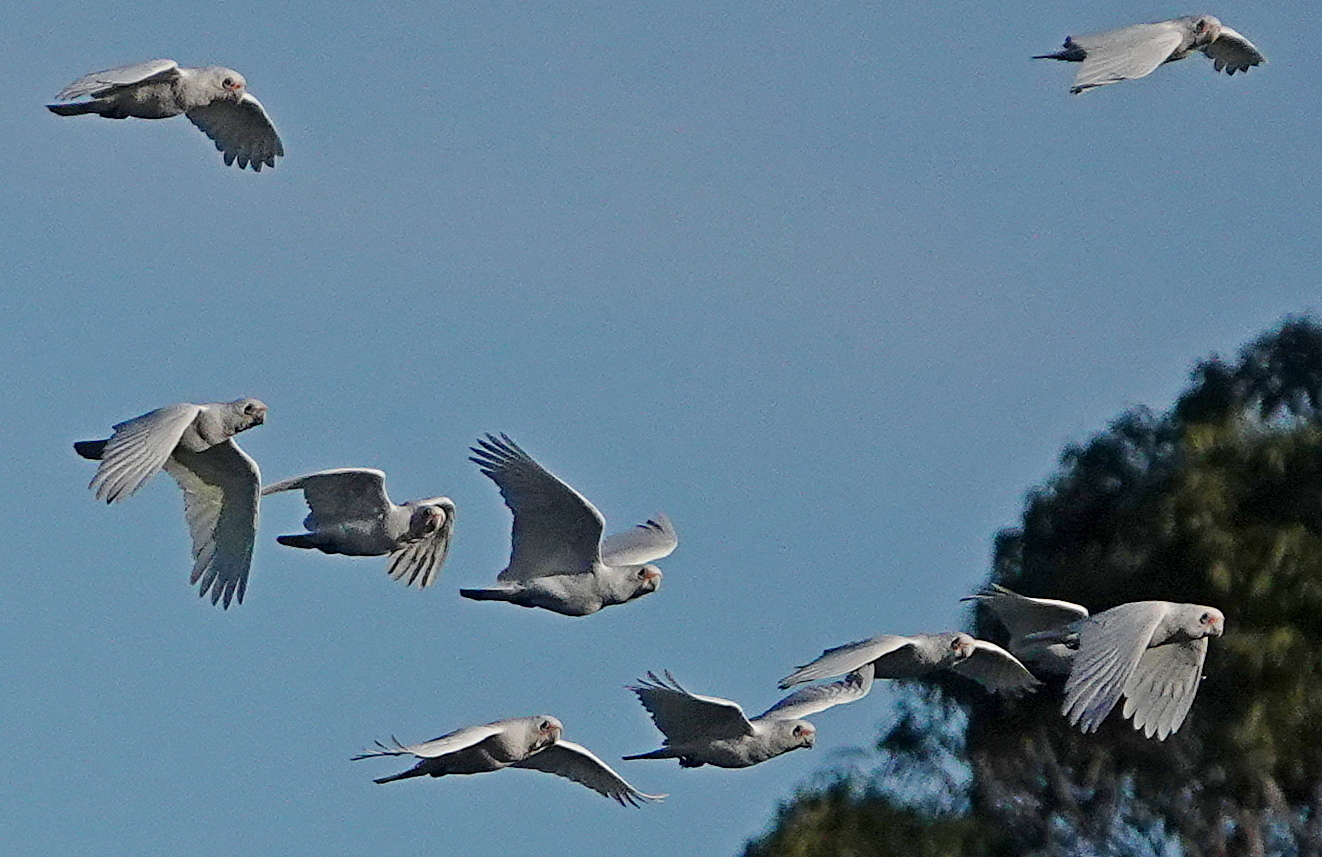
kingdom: Animalia
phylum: Chordata
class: Aves
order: Psittaciformes
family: Psittacidae
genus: Cacatua
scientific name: Cacatua sanguinea
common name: Little corella
